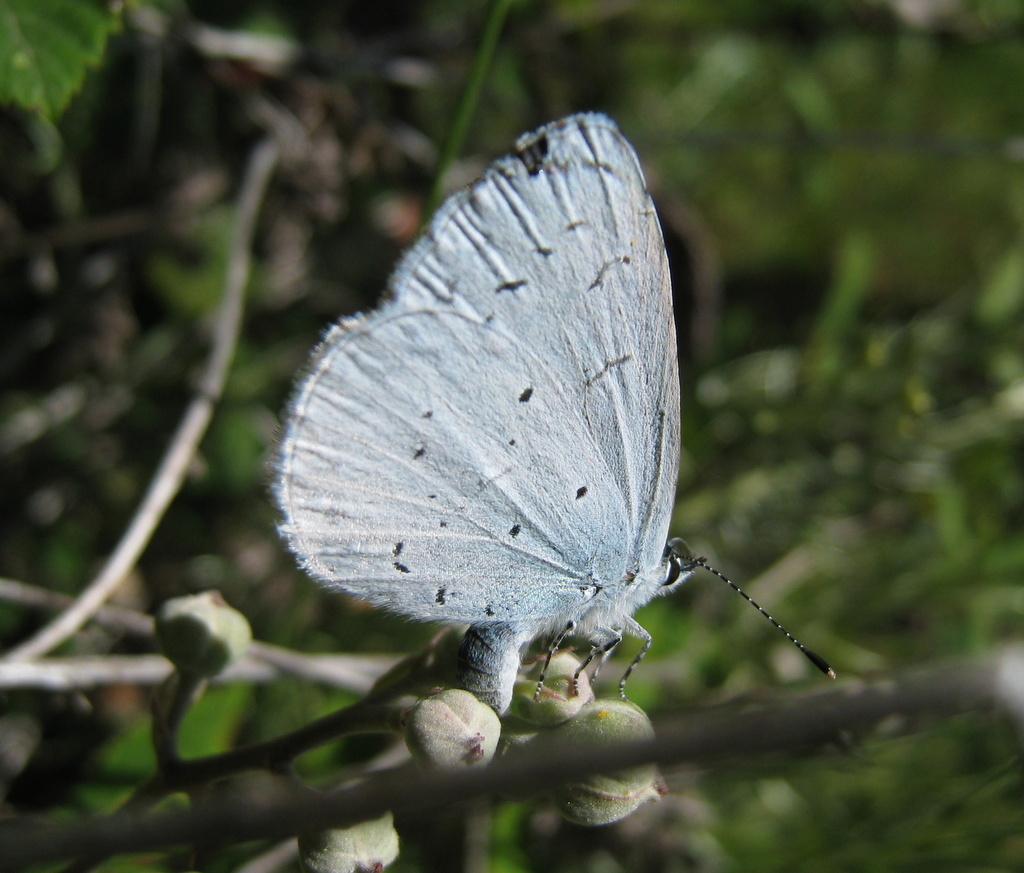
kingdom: Animalia
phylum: Arthropoda
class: Insecta
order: Lepidoptera
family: Lycaenidae
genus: Celastrina
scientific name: Celastrina argiolus
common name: Holly blue
